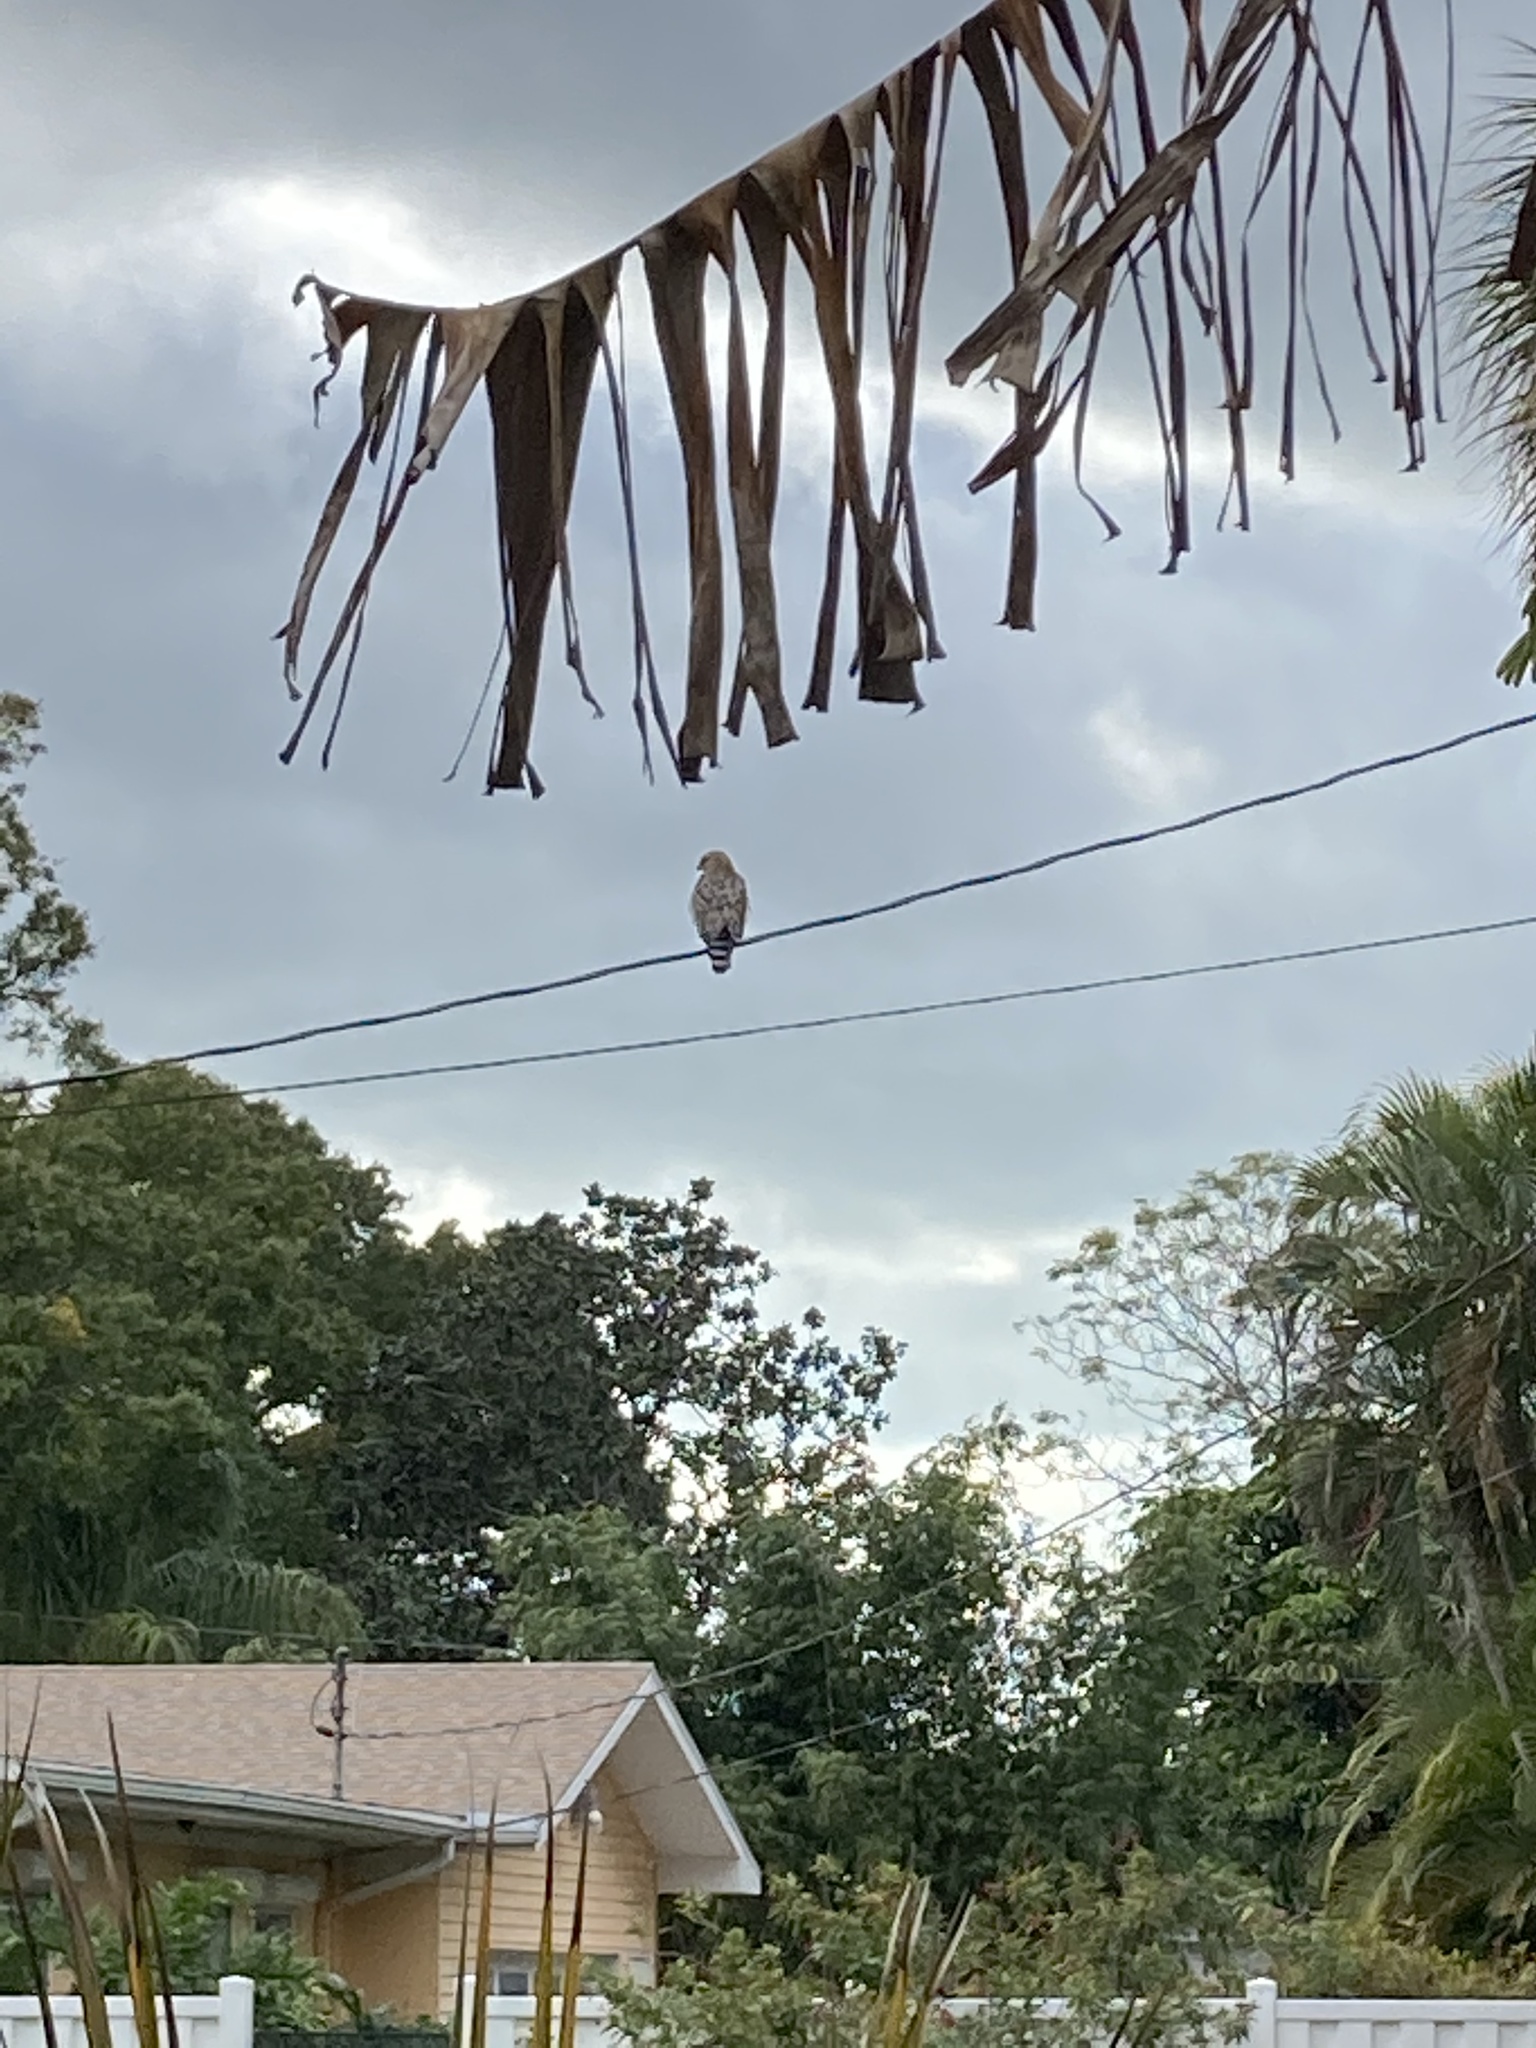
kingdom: Animalia
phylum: Chordata
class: Aves
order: Accipitriformes
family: Accipitridae
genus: Buteo
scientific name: Buteo lineatus
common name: Red-shouldered hawk
